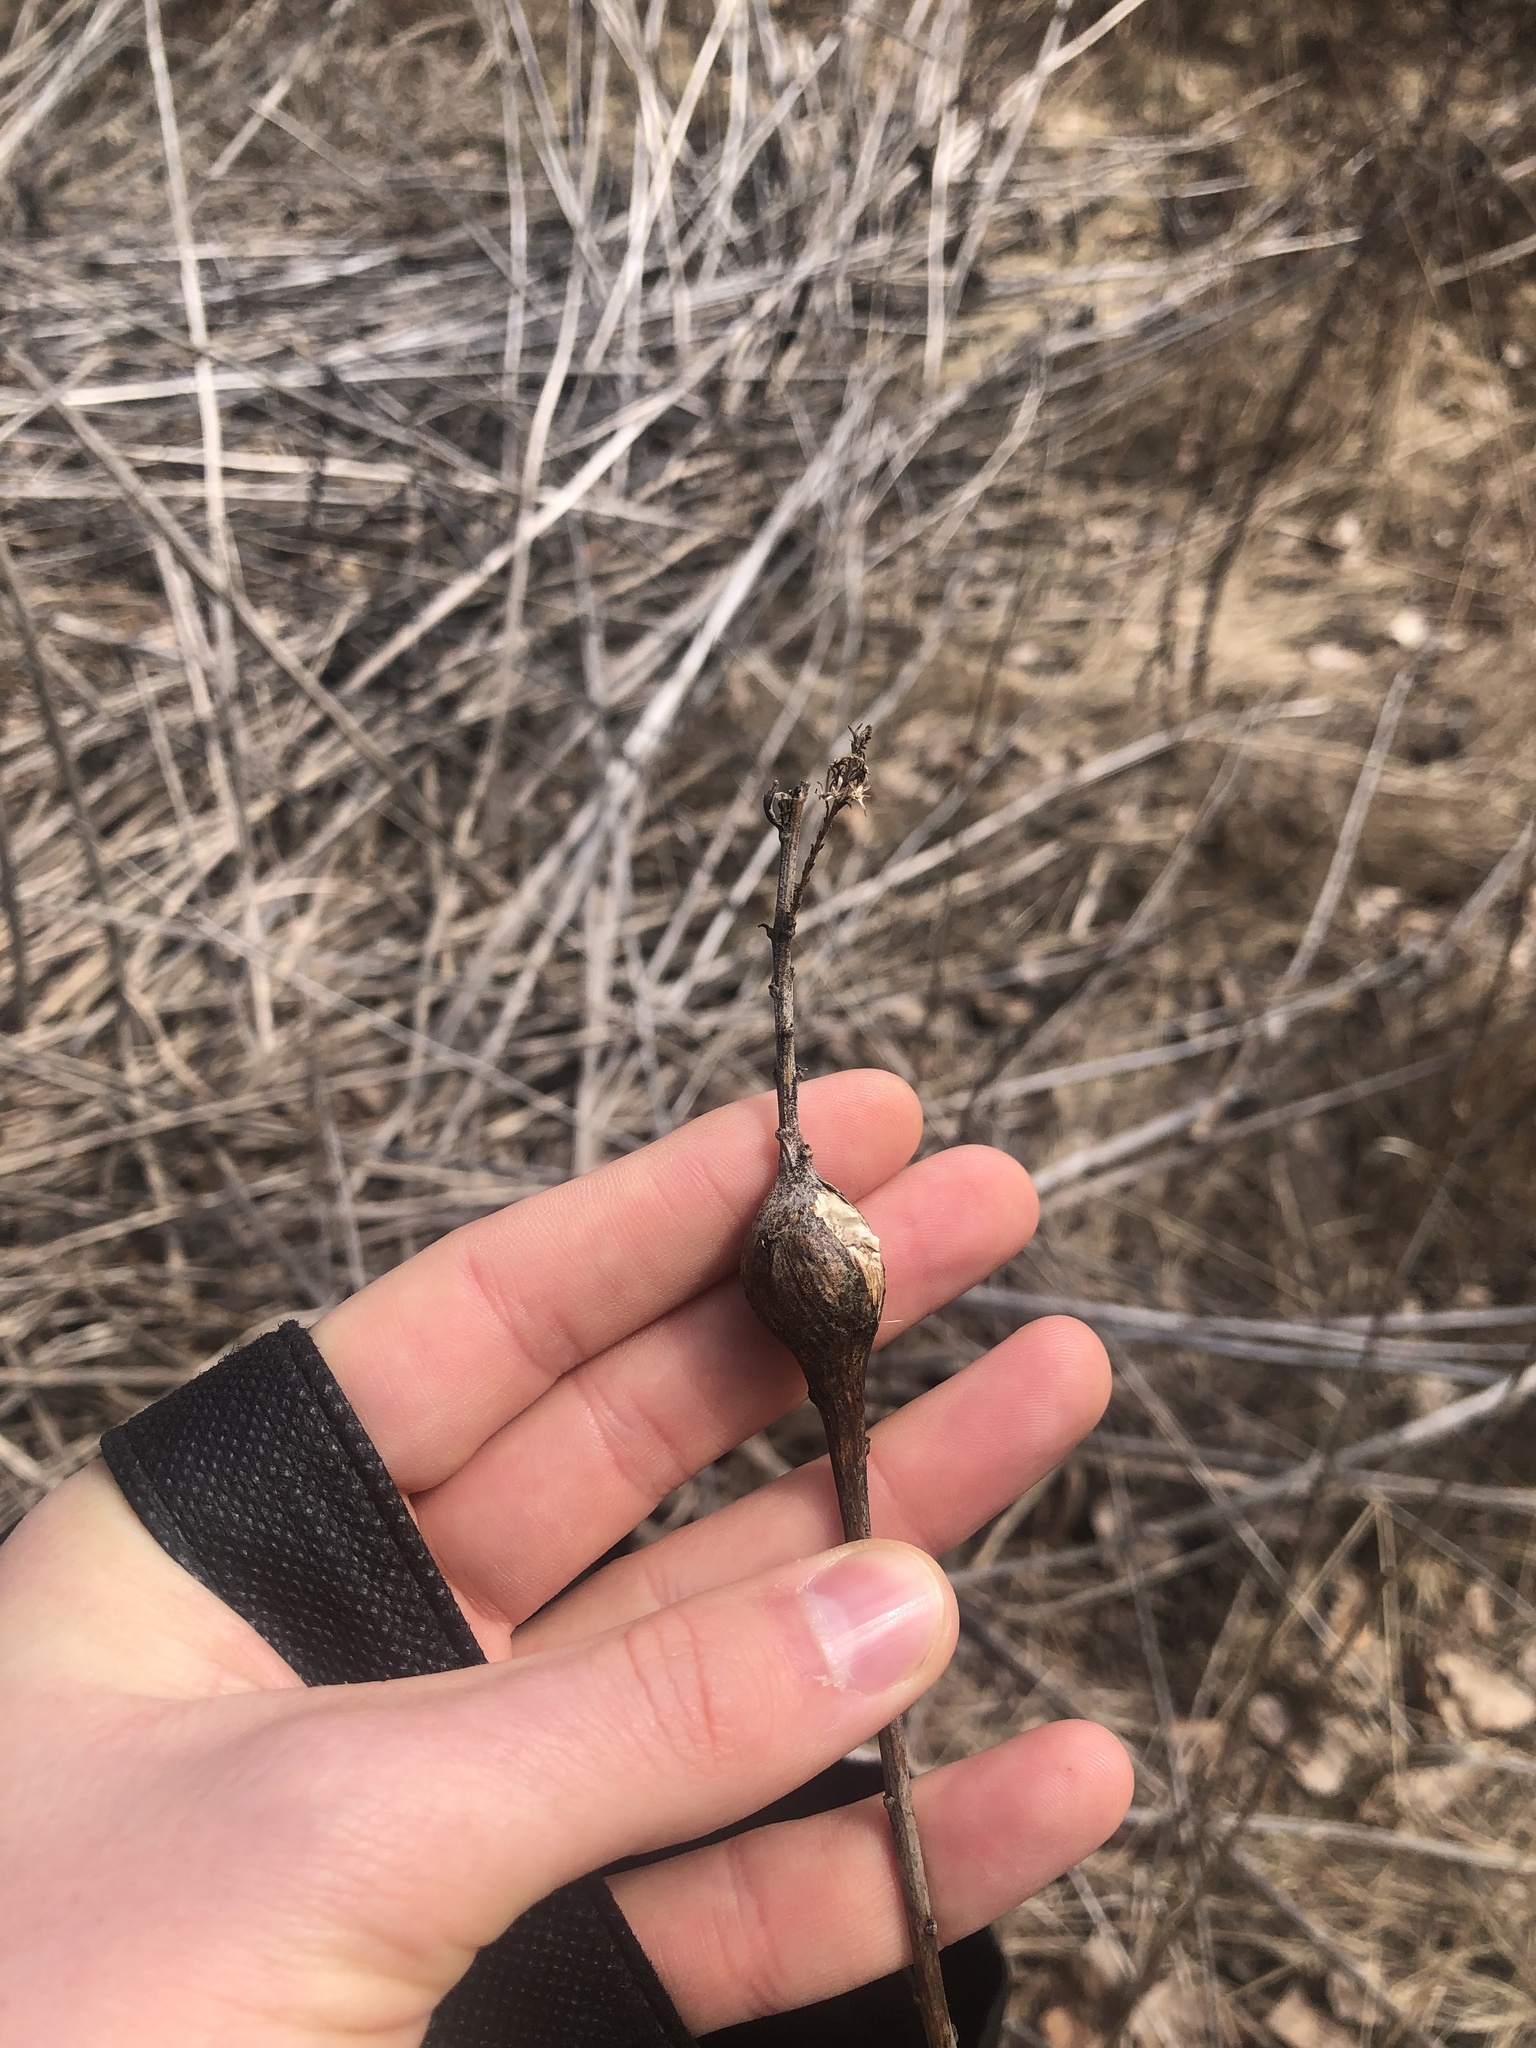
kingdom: Animalia
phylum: Arthropoda
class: Insecta
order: Diptera
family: Tephritidae
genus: Eurosta
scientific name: Eurosta solidaginis
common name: Goldenrod gall fly
